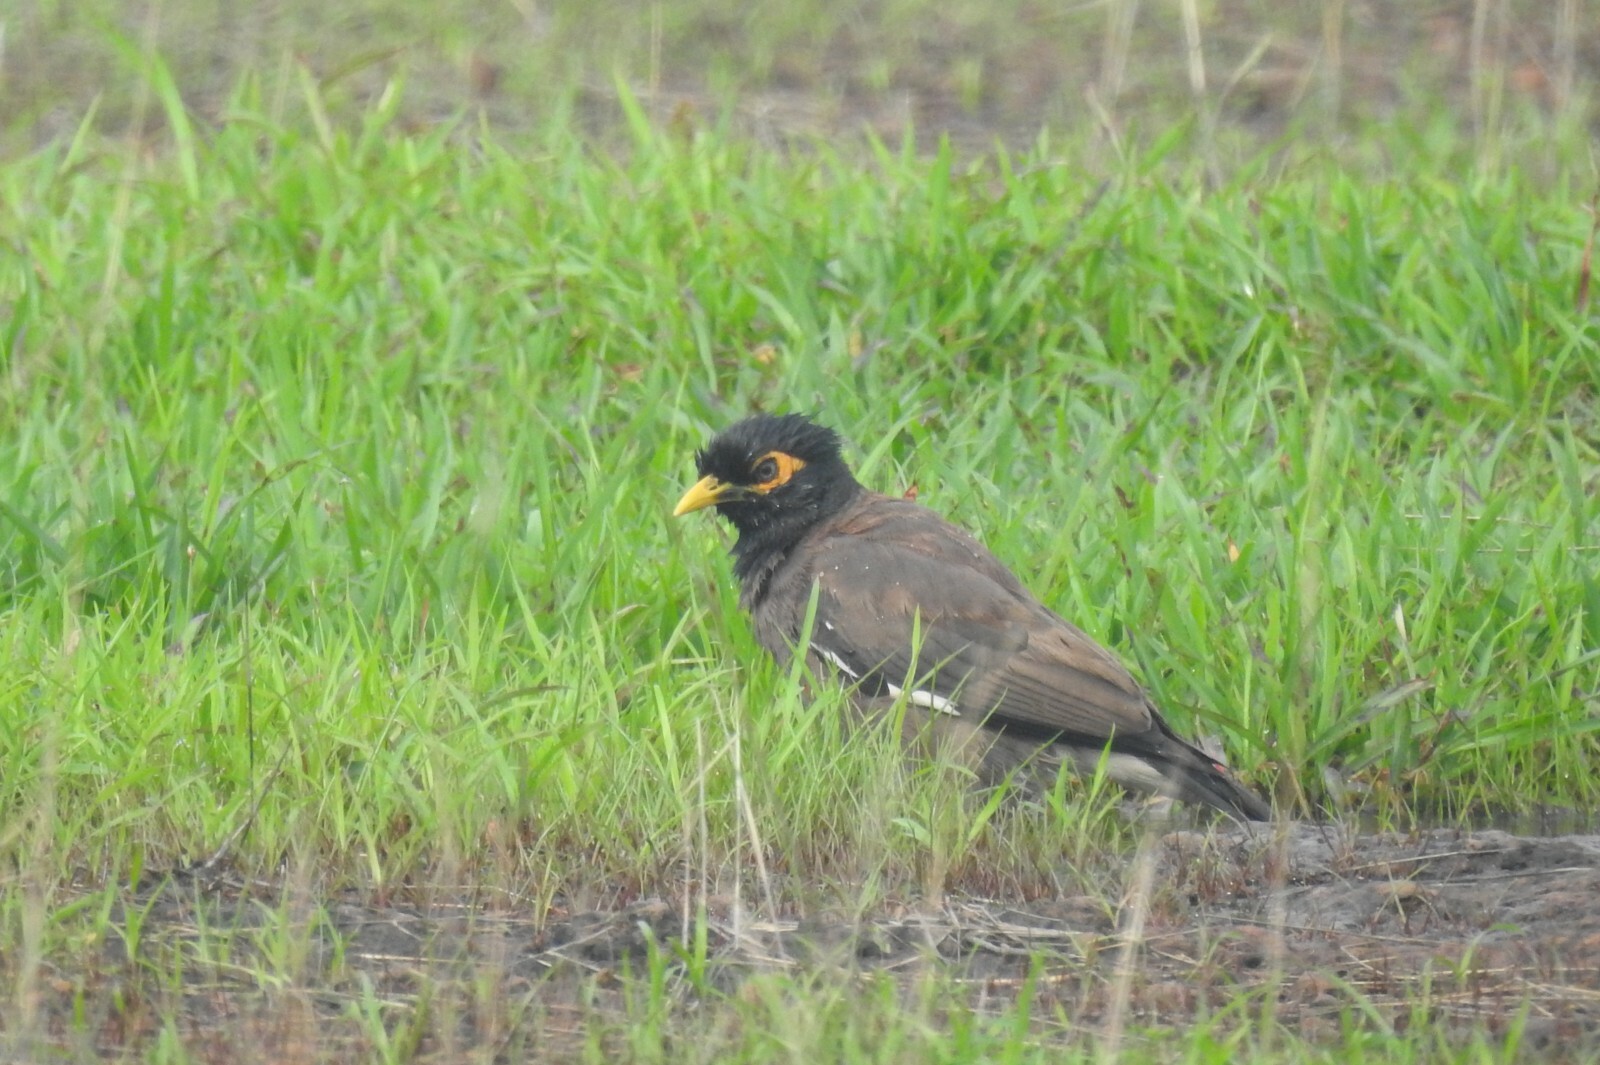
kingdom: Animalia
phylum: Chordata
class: Aves
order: Passeriformes
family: Sturnidae
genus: Acridotheres
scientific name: Acridotheres tristis
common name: Common myna
